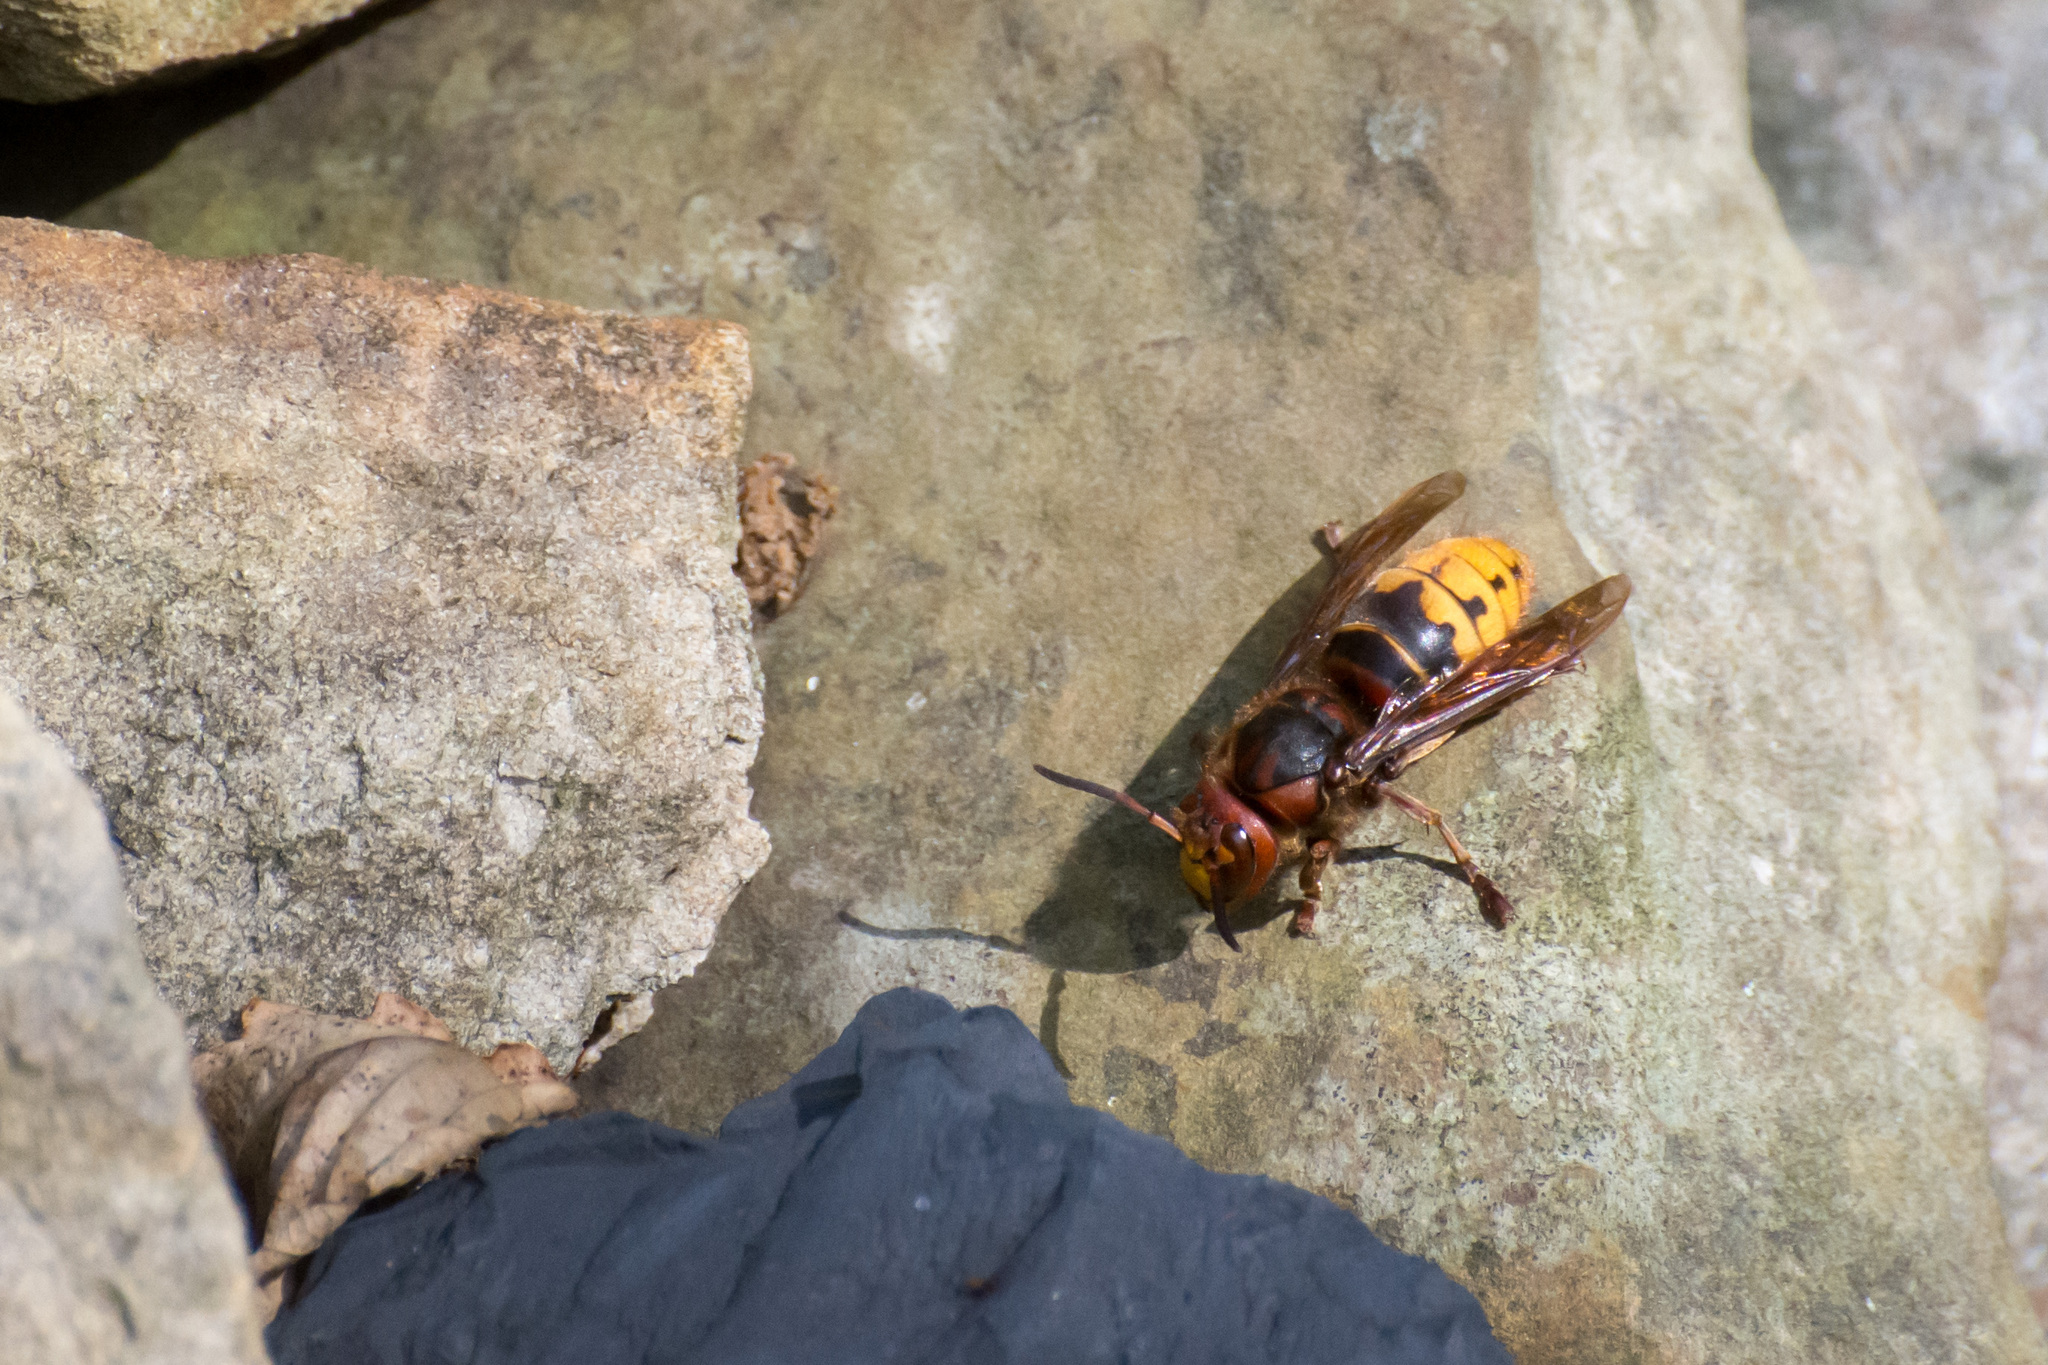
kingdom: Animalia
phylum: Arthropoda
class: Insecta
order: Hymenoptera
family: Vespidae
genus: Vespa
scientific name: Vespa crabro
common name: Hornet
